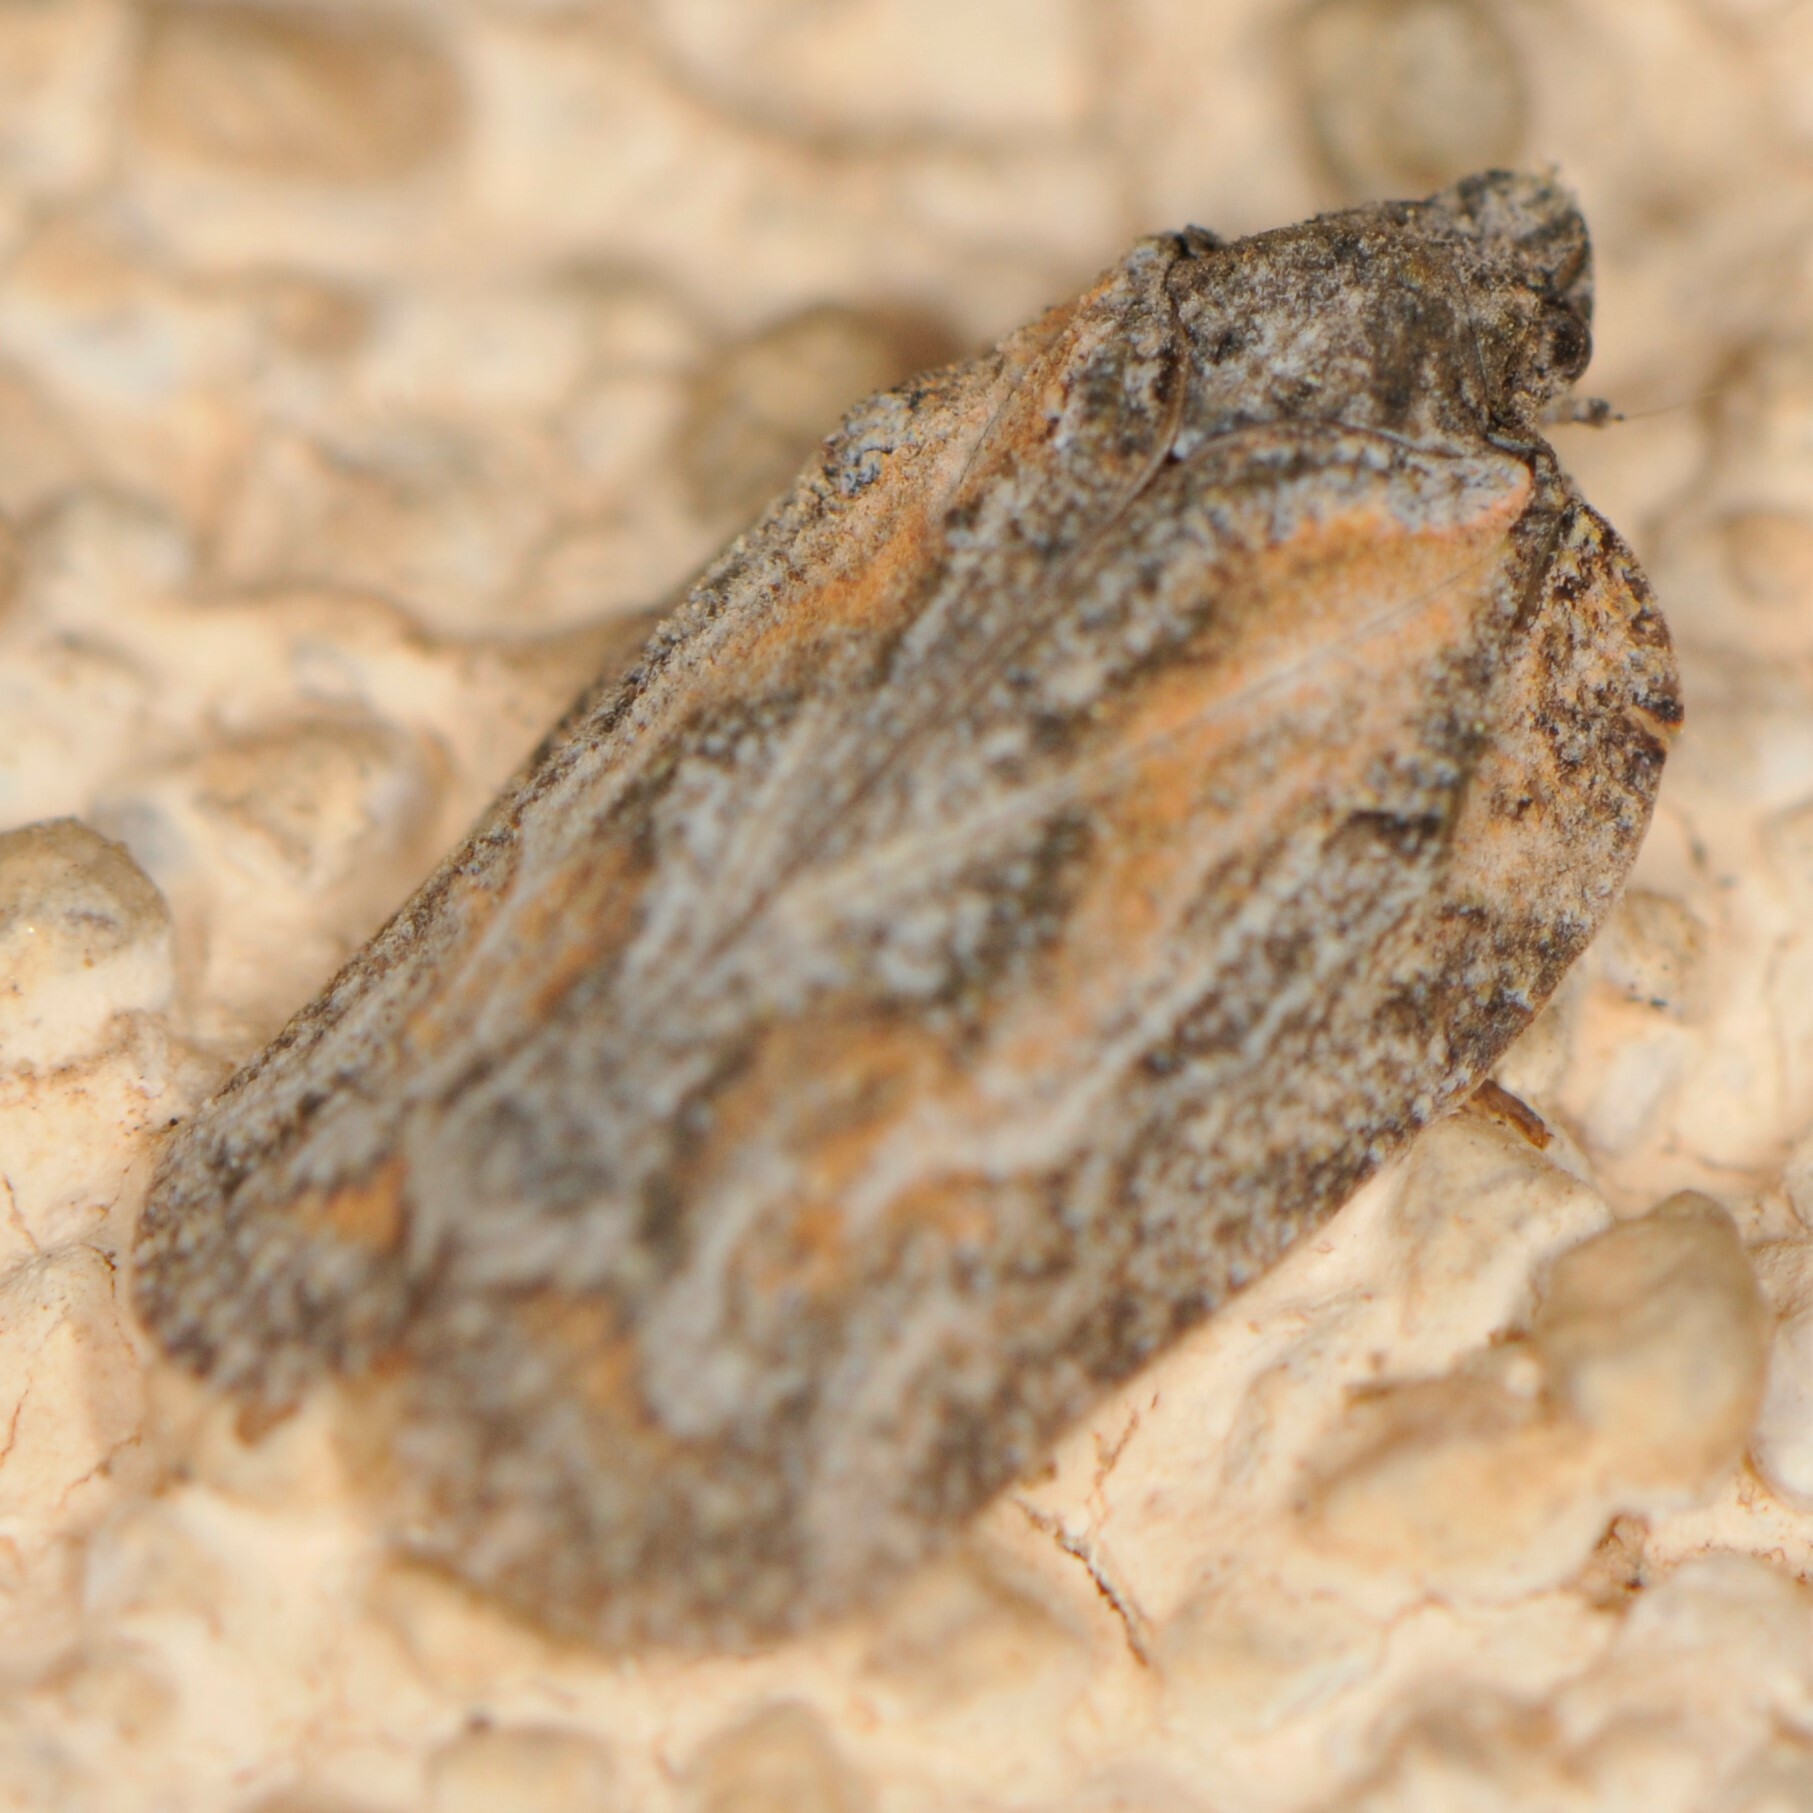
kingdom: Animalia
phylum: Arthropoda
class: Insecta
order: Hemiptera
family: Flatidae
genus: Metcracis
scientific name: Metcracis fusca
